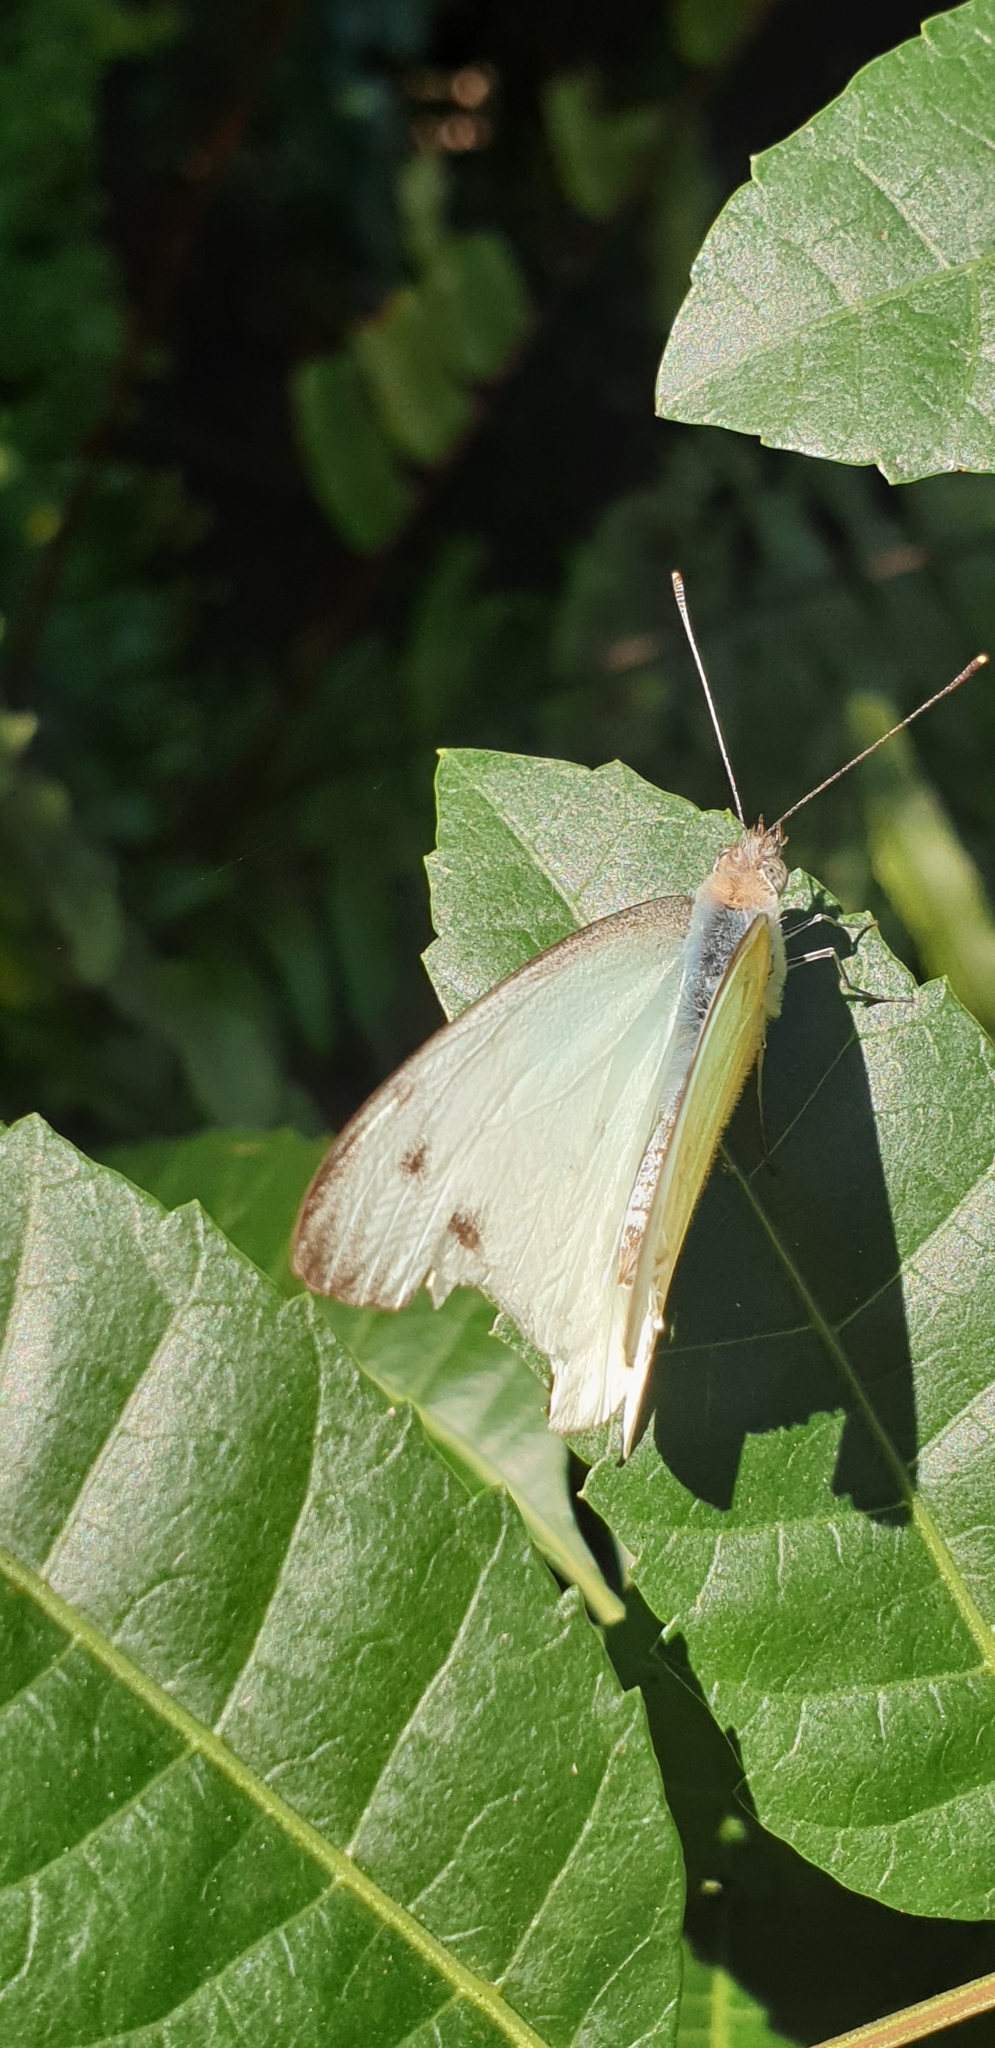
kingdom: Animalia
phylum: Arthropoda
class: Insecta
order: Lepidoptera
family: Pieridae
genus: Appias
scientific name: Appias paulina
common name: Ceylon lesser albatross
